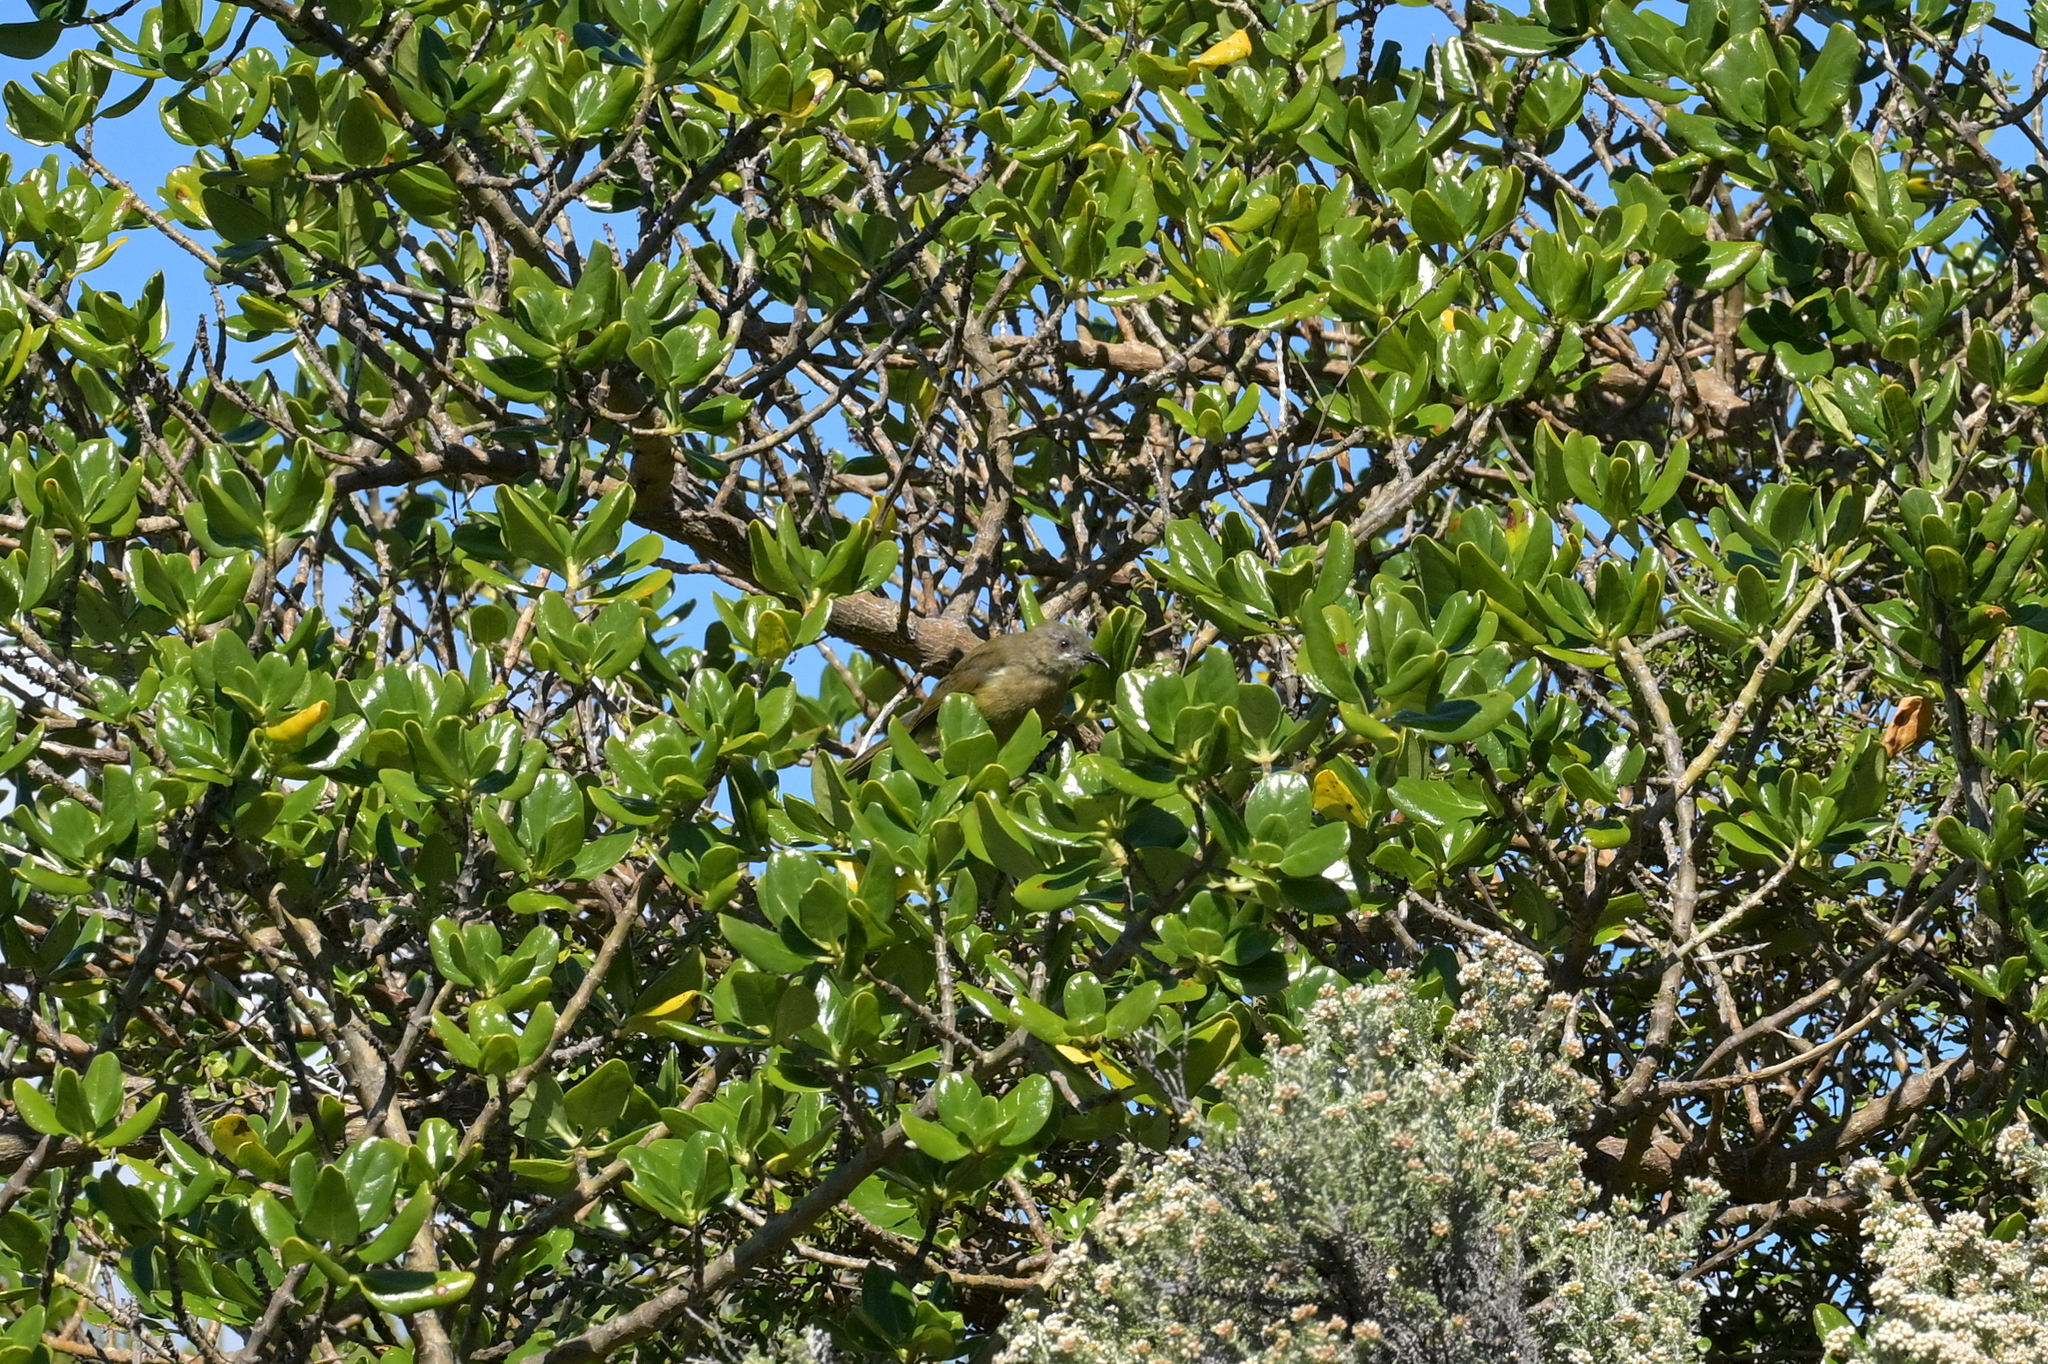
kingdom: Animalia
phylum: Chordata
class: Aves
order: Passeriformes
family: Meliphagidae
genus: Anthornis
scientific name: Anthornis melanura
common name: New zealand bellbird
